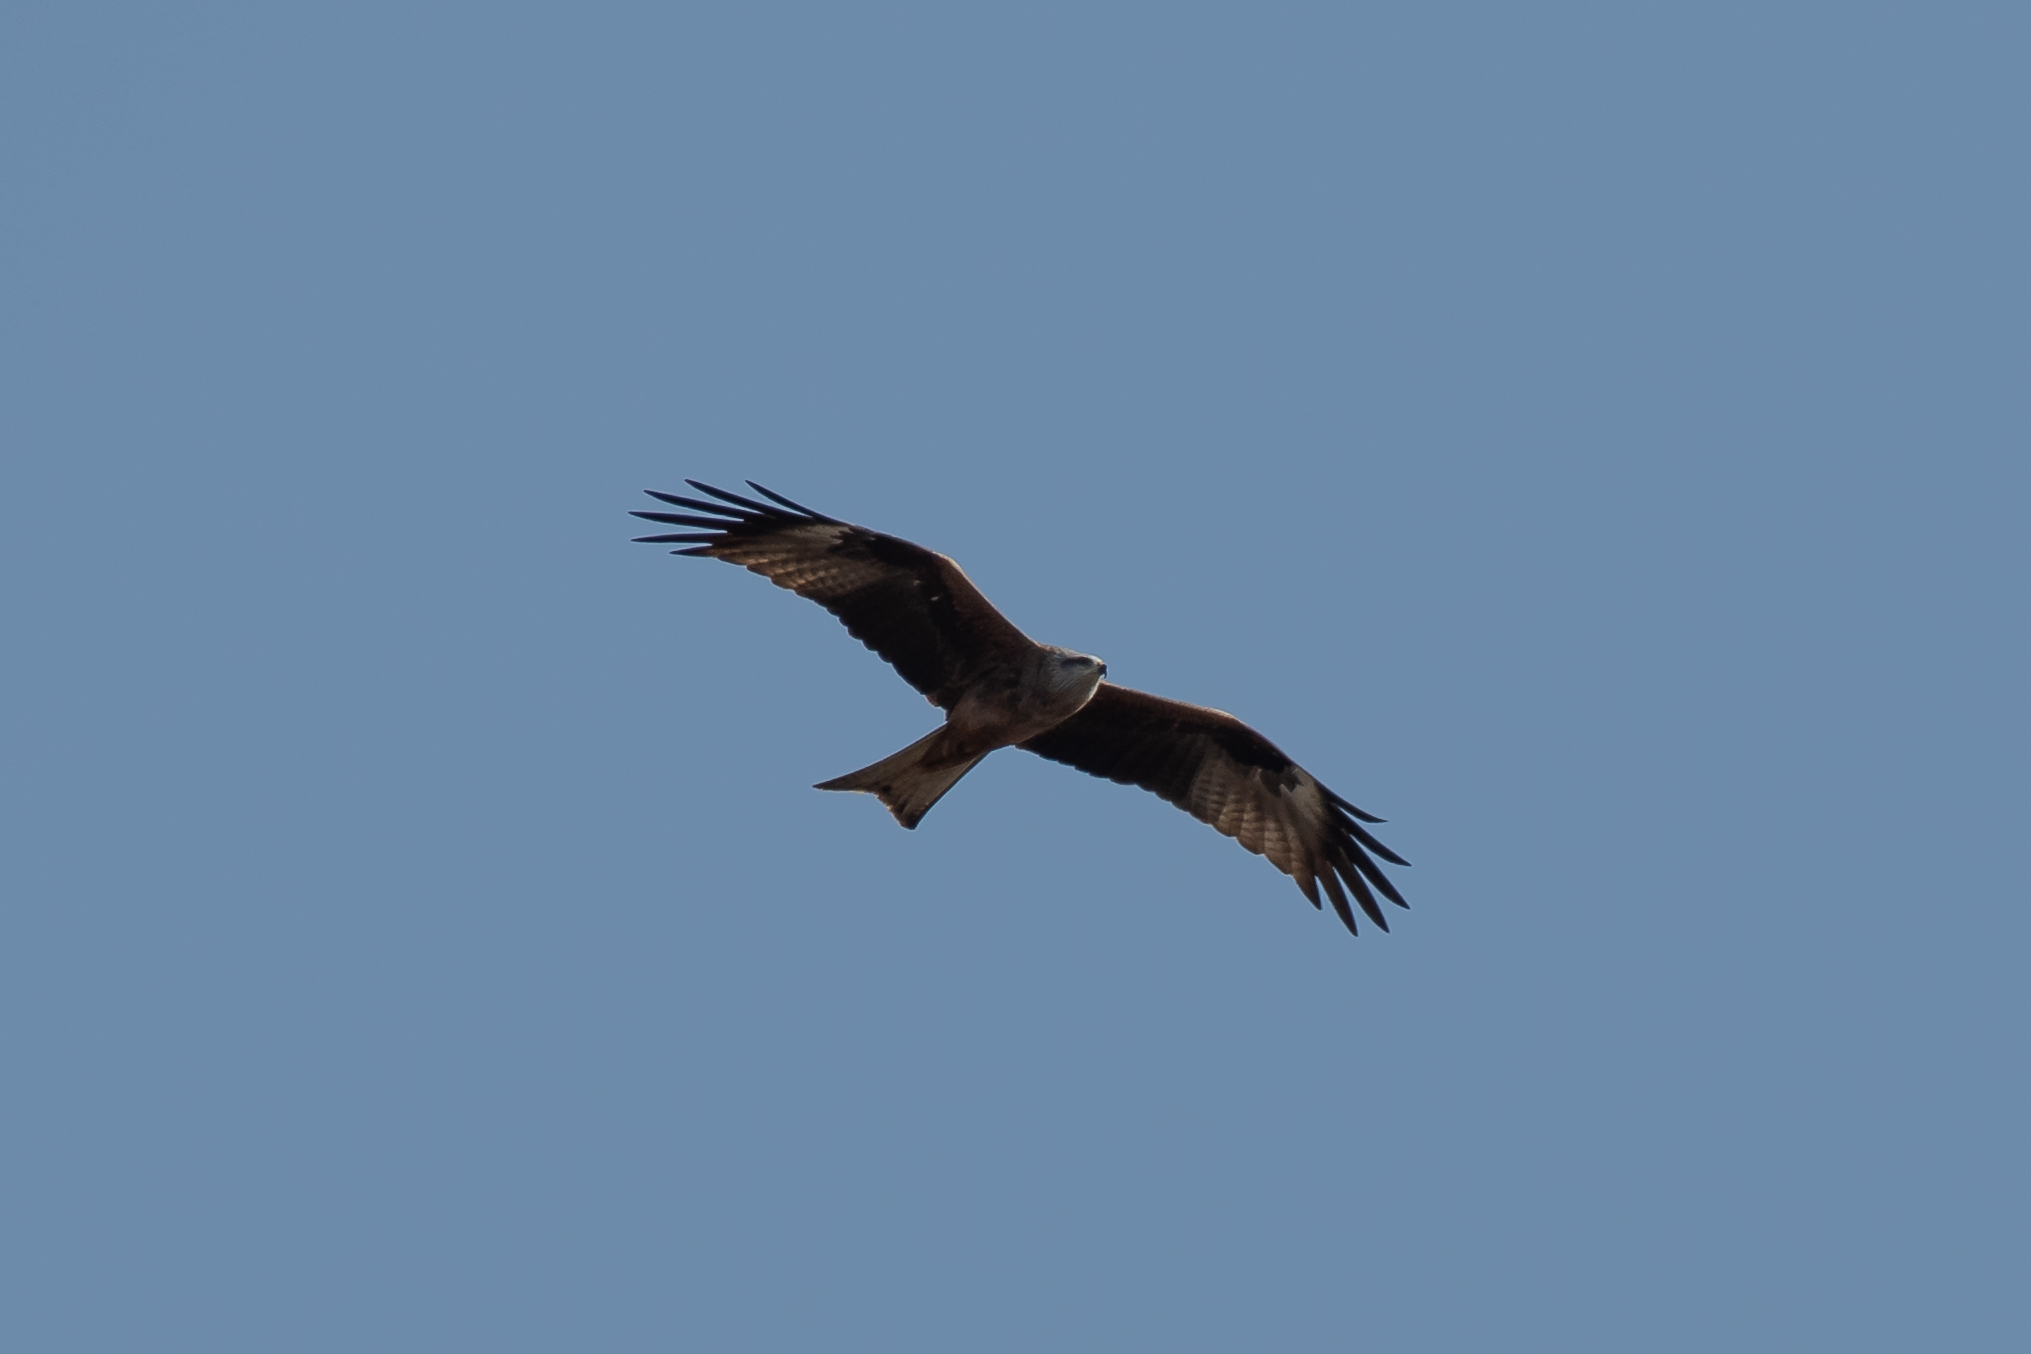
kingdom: Animalia
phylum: Chordata
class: Aves
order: Accipitriformes
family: Accipitridae
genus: Milvus
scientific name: Milvus migrans
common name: Black kite
